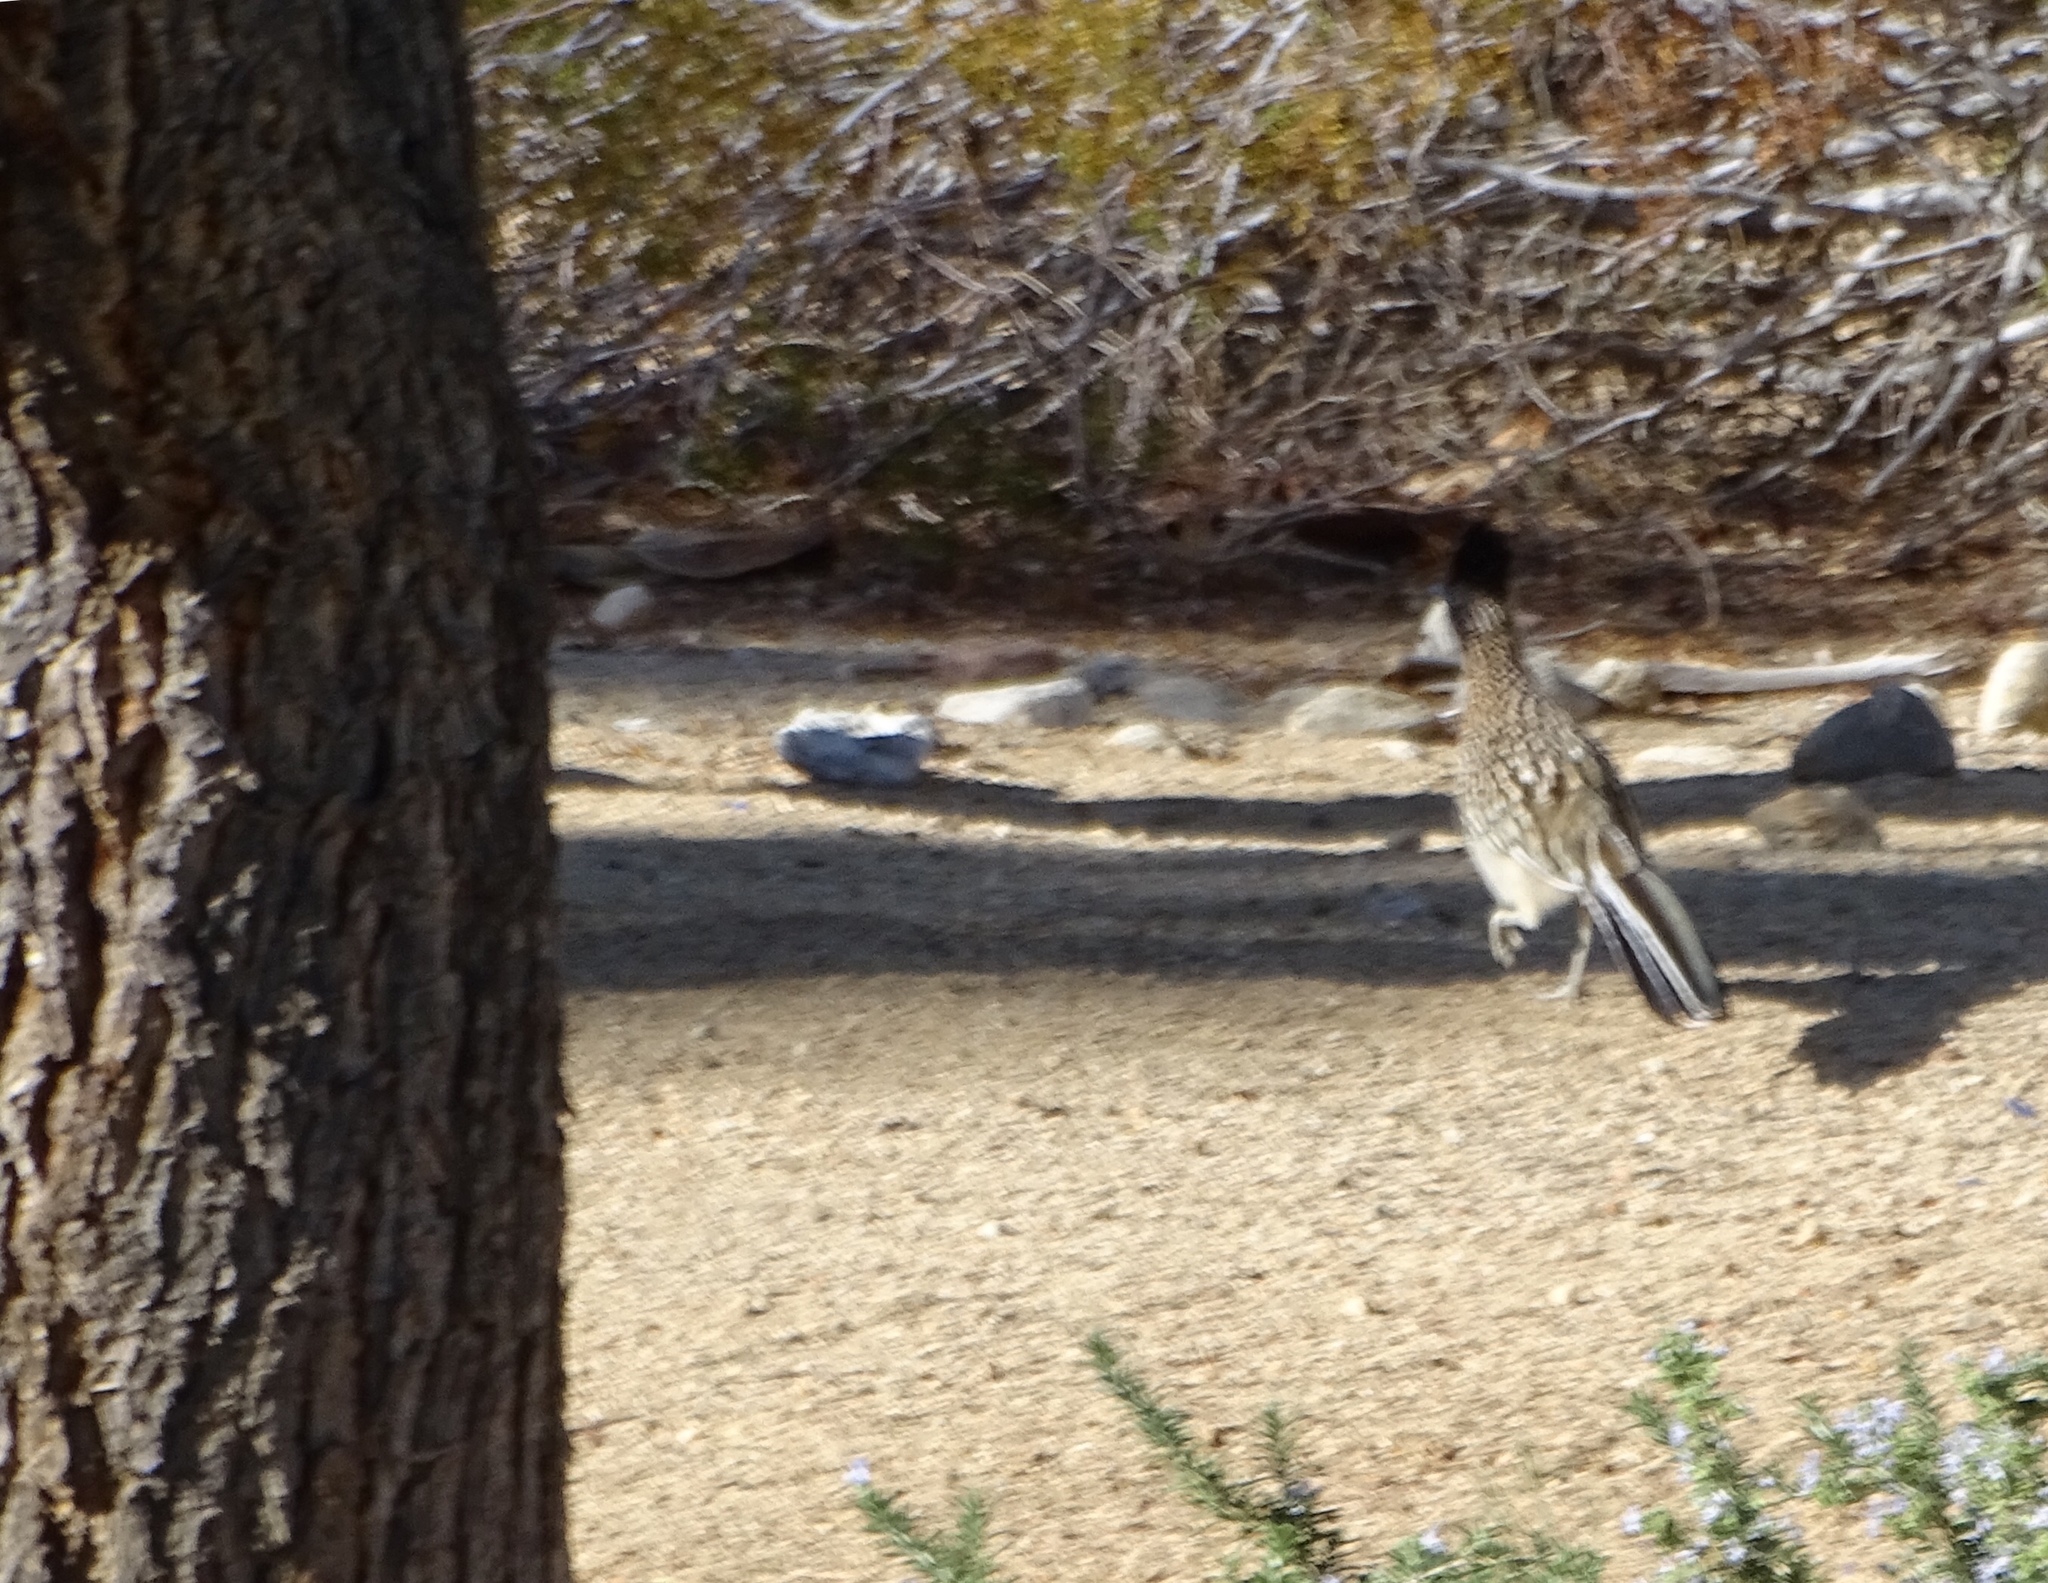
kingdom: Animalia
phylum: Chordata
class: Aves
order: Cuculiformes
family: Cuculidae
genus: Geococcyx
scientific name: Geococcyx californianus
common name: Greater roadrunner
